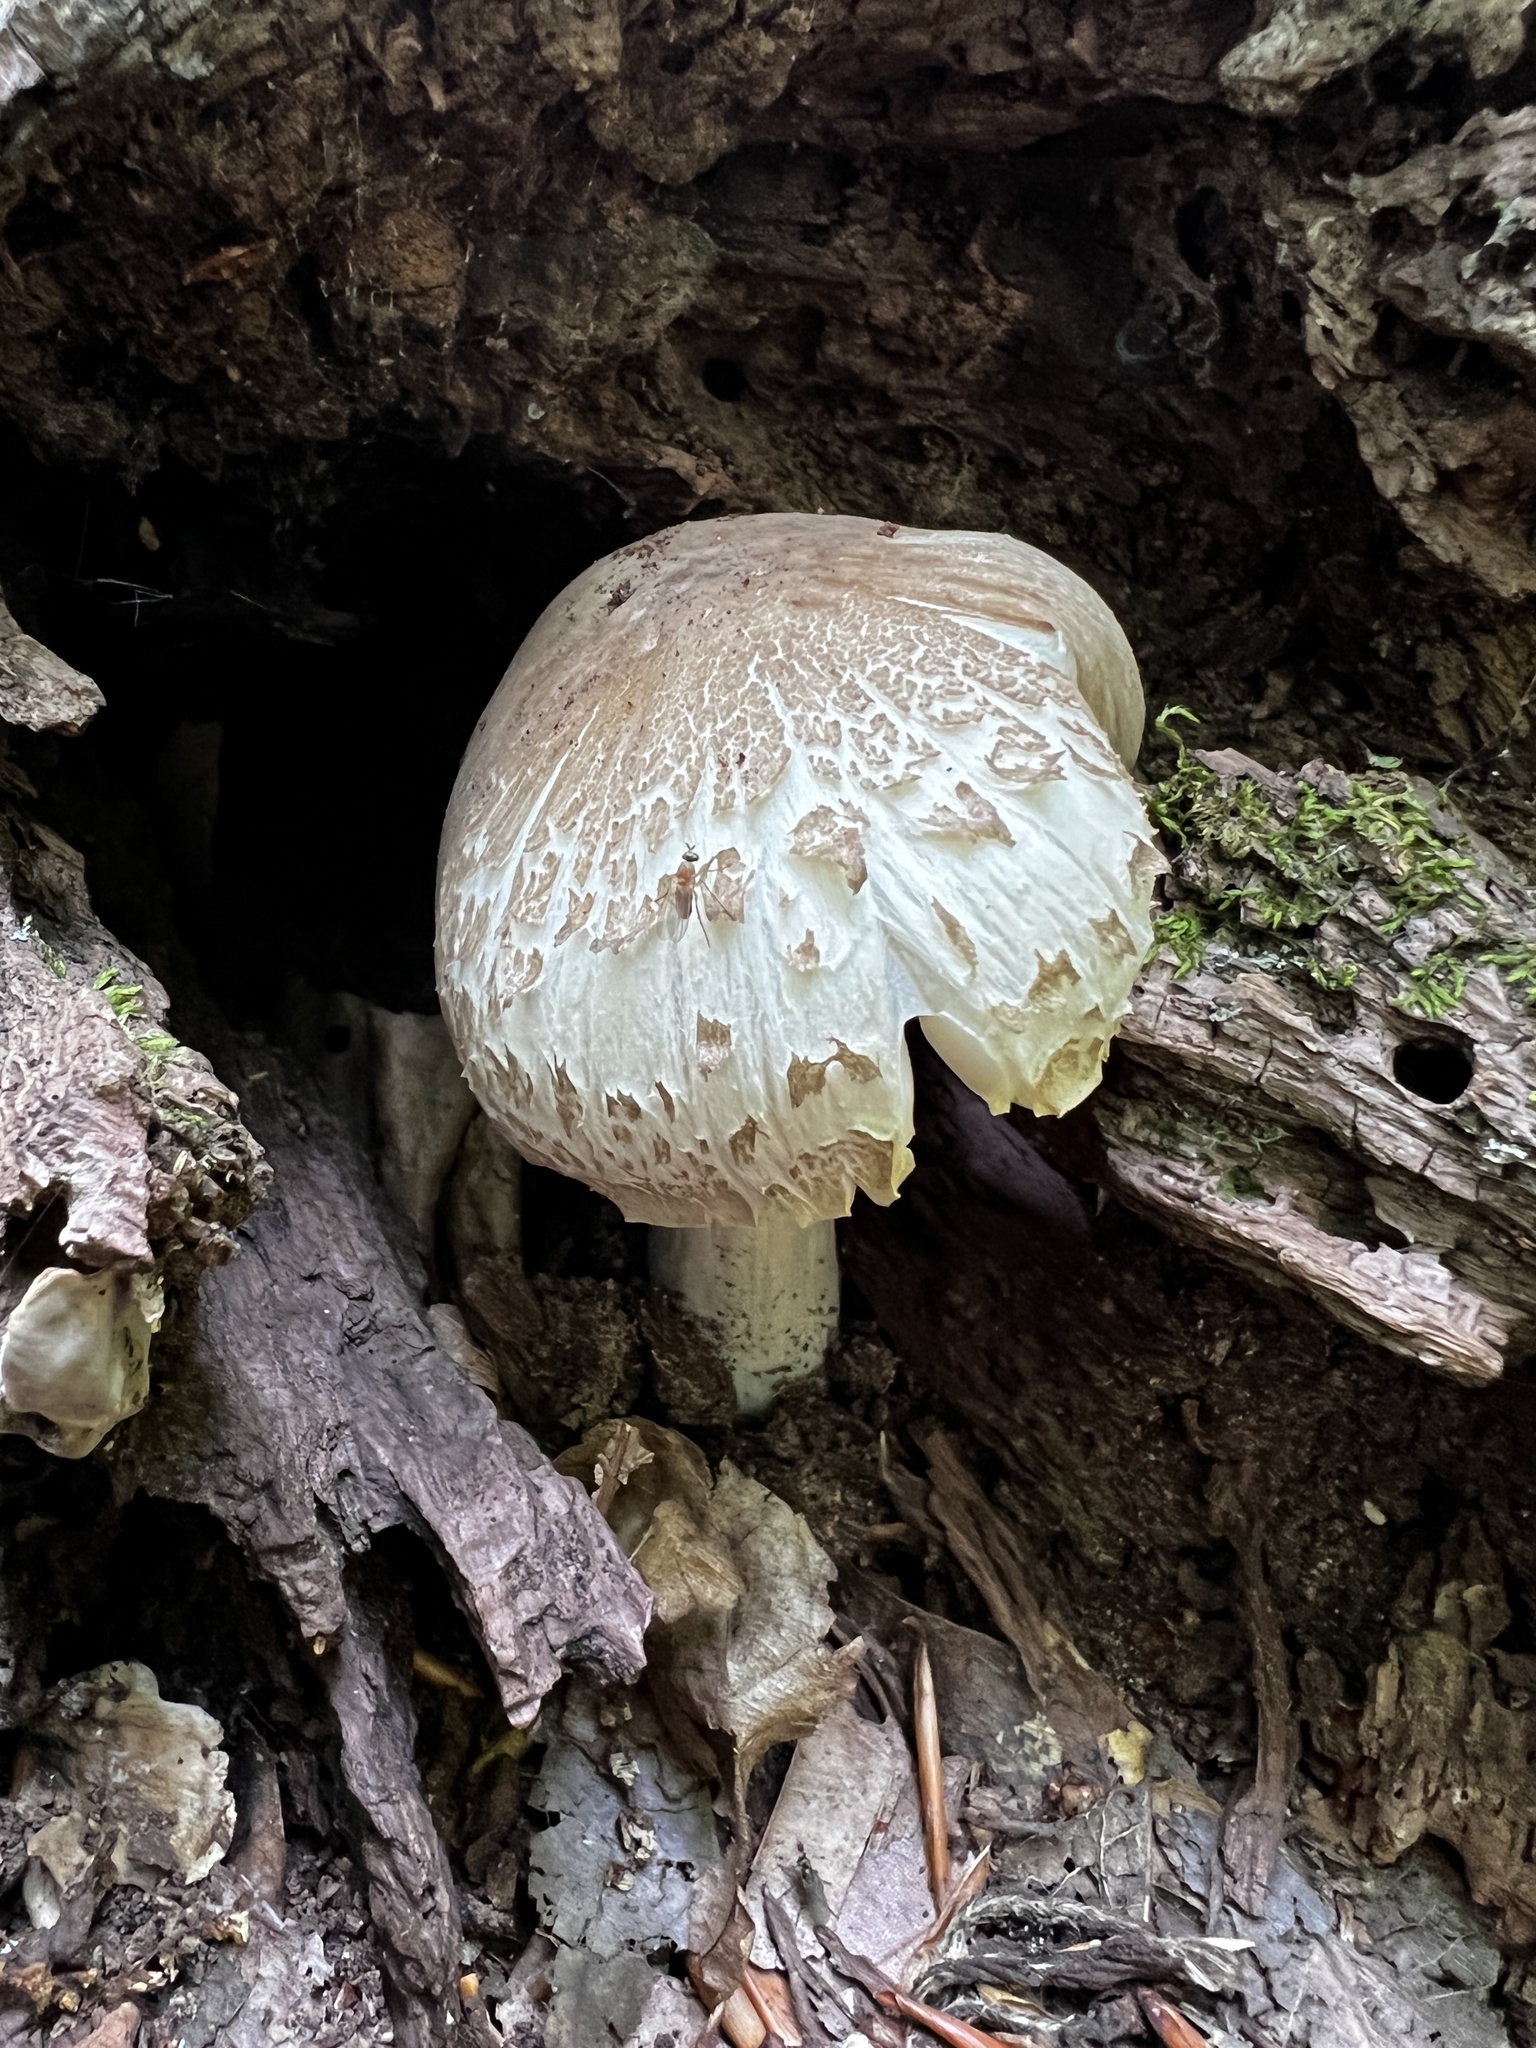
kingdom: Fungi
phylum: Basidiomycota
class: Agaricomycetes
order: Agaricales
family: Tricholomataceae
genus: Megacollybia
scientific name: Megacollybia rodmanii
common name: Eastern american platterful mushroom
